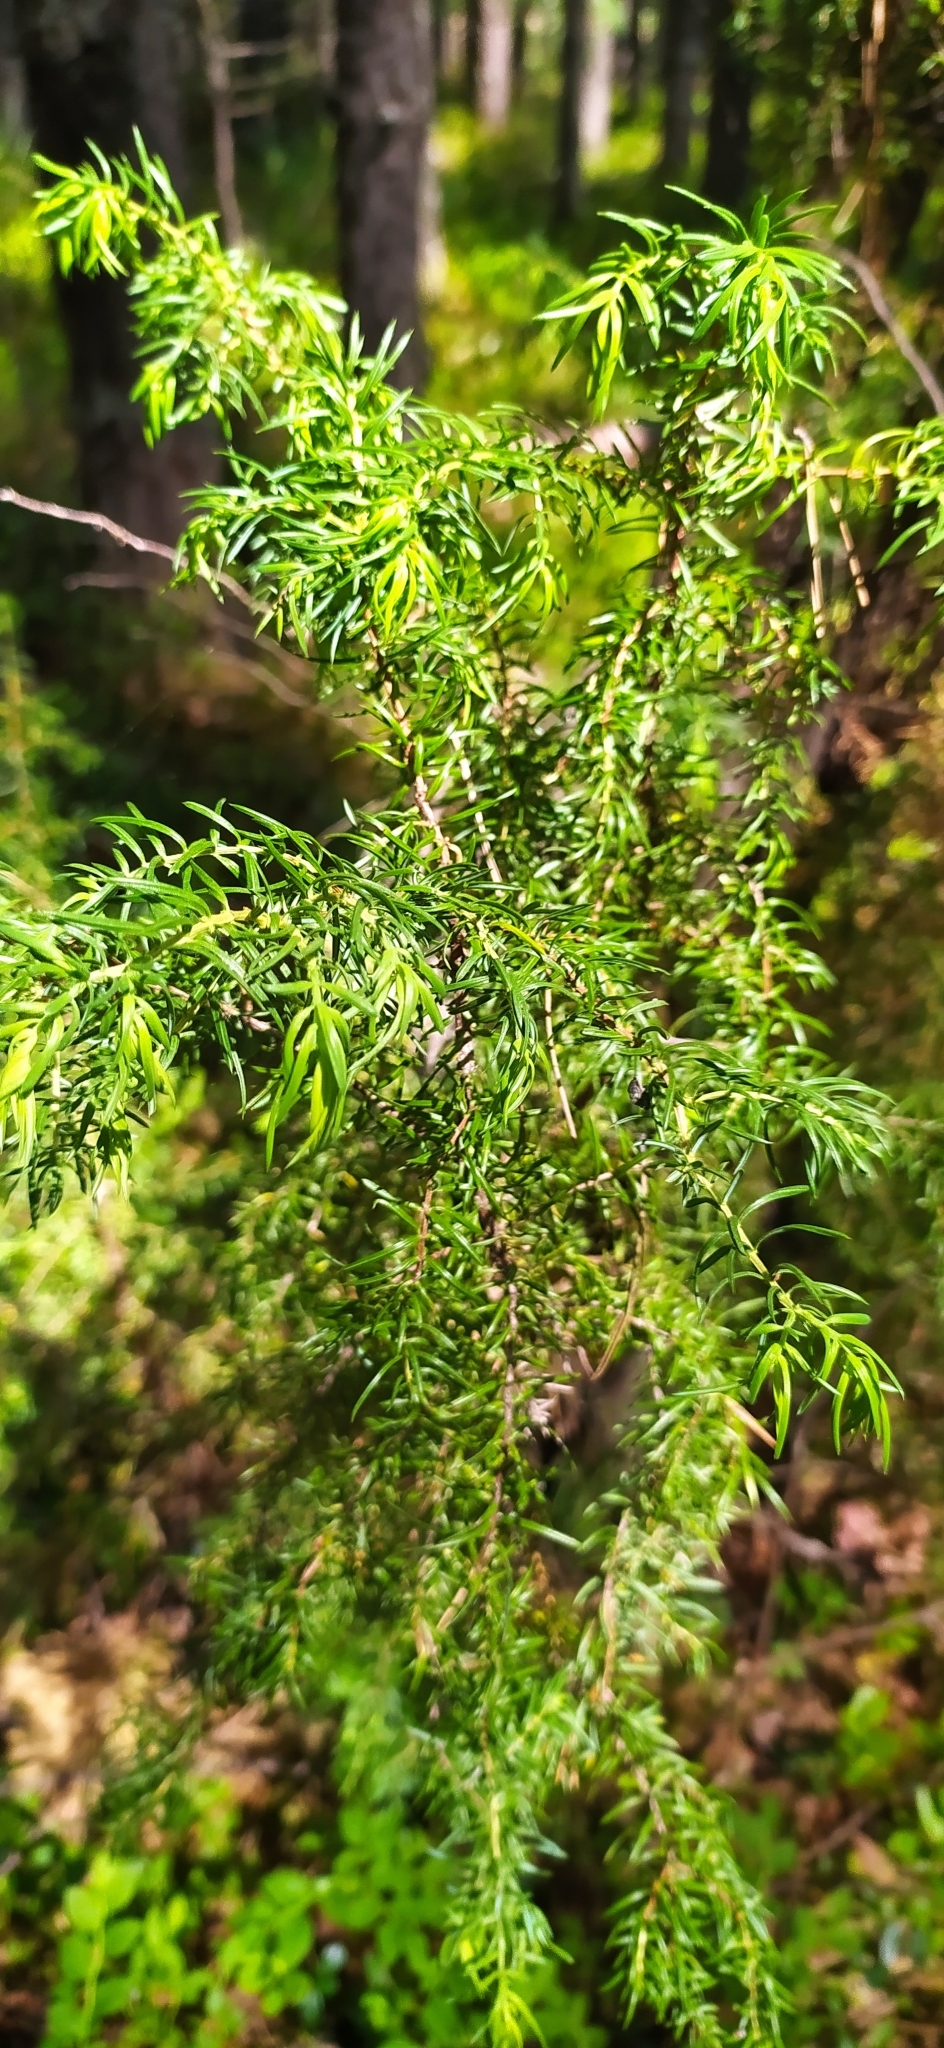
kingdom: Plantae
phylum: Tracheophyta
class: Pinopsida
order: Pinales
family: Cupressaceae
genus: Juniperus
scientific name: Juniperus communis
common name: Common juniper
